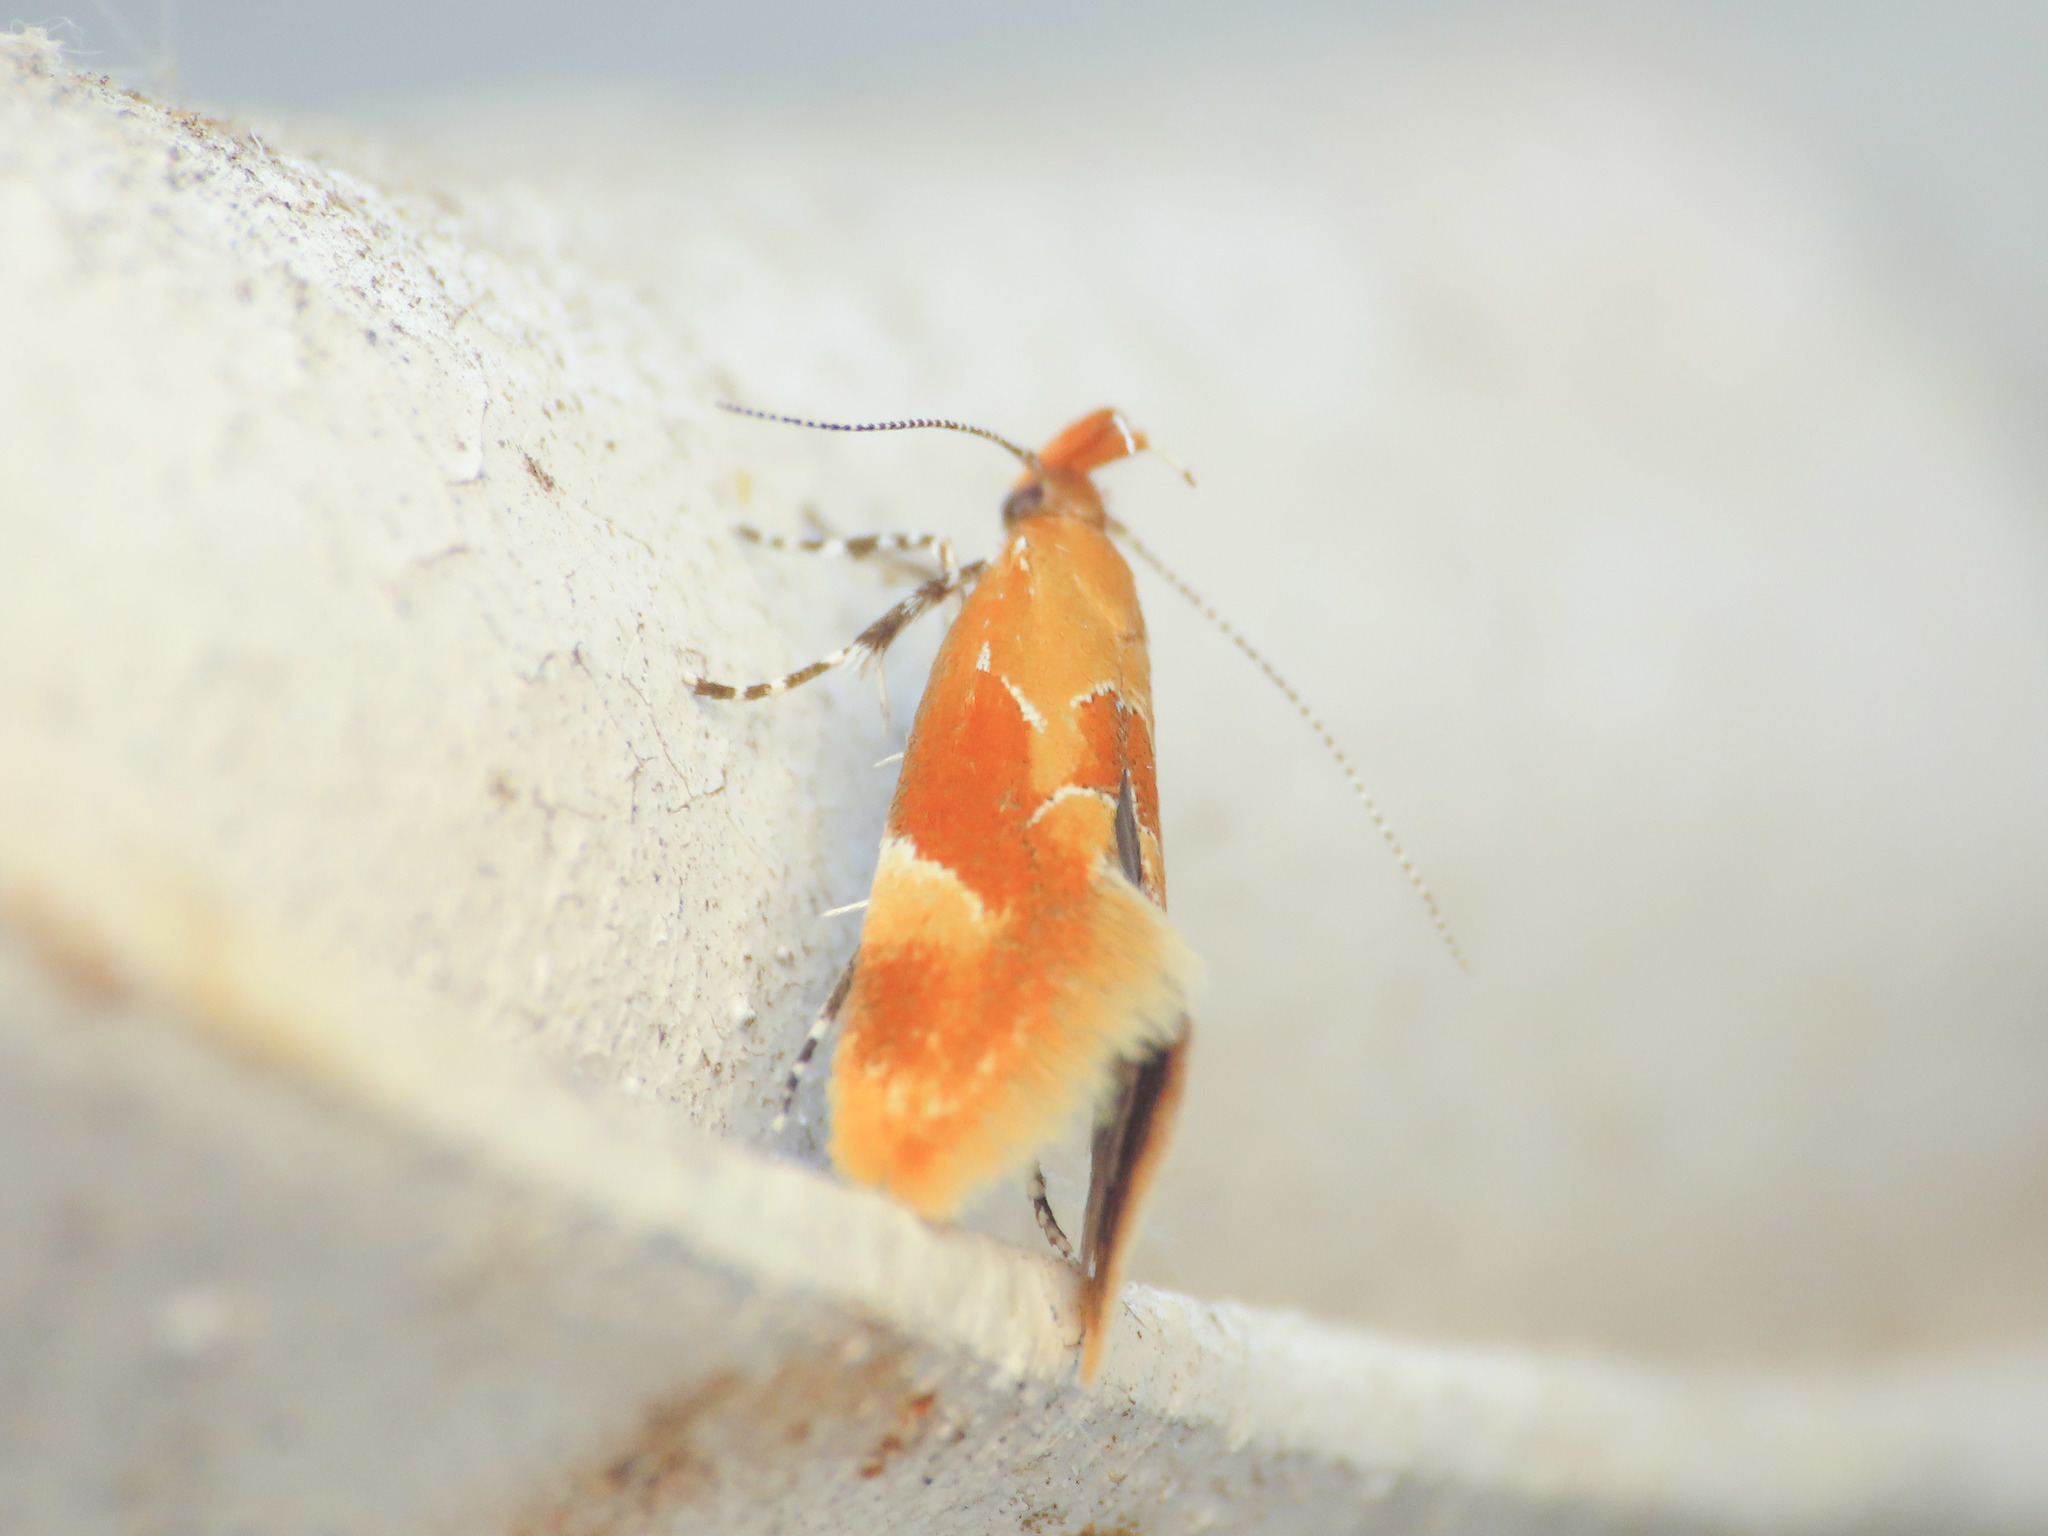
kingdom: Animalia
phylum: Arthropoda
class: Insecta
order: Lepidoptera
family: Oecophoridae
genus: Callima
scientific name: Callima formosella
